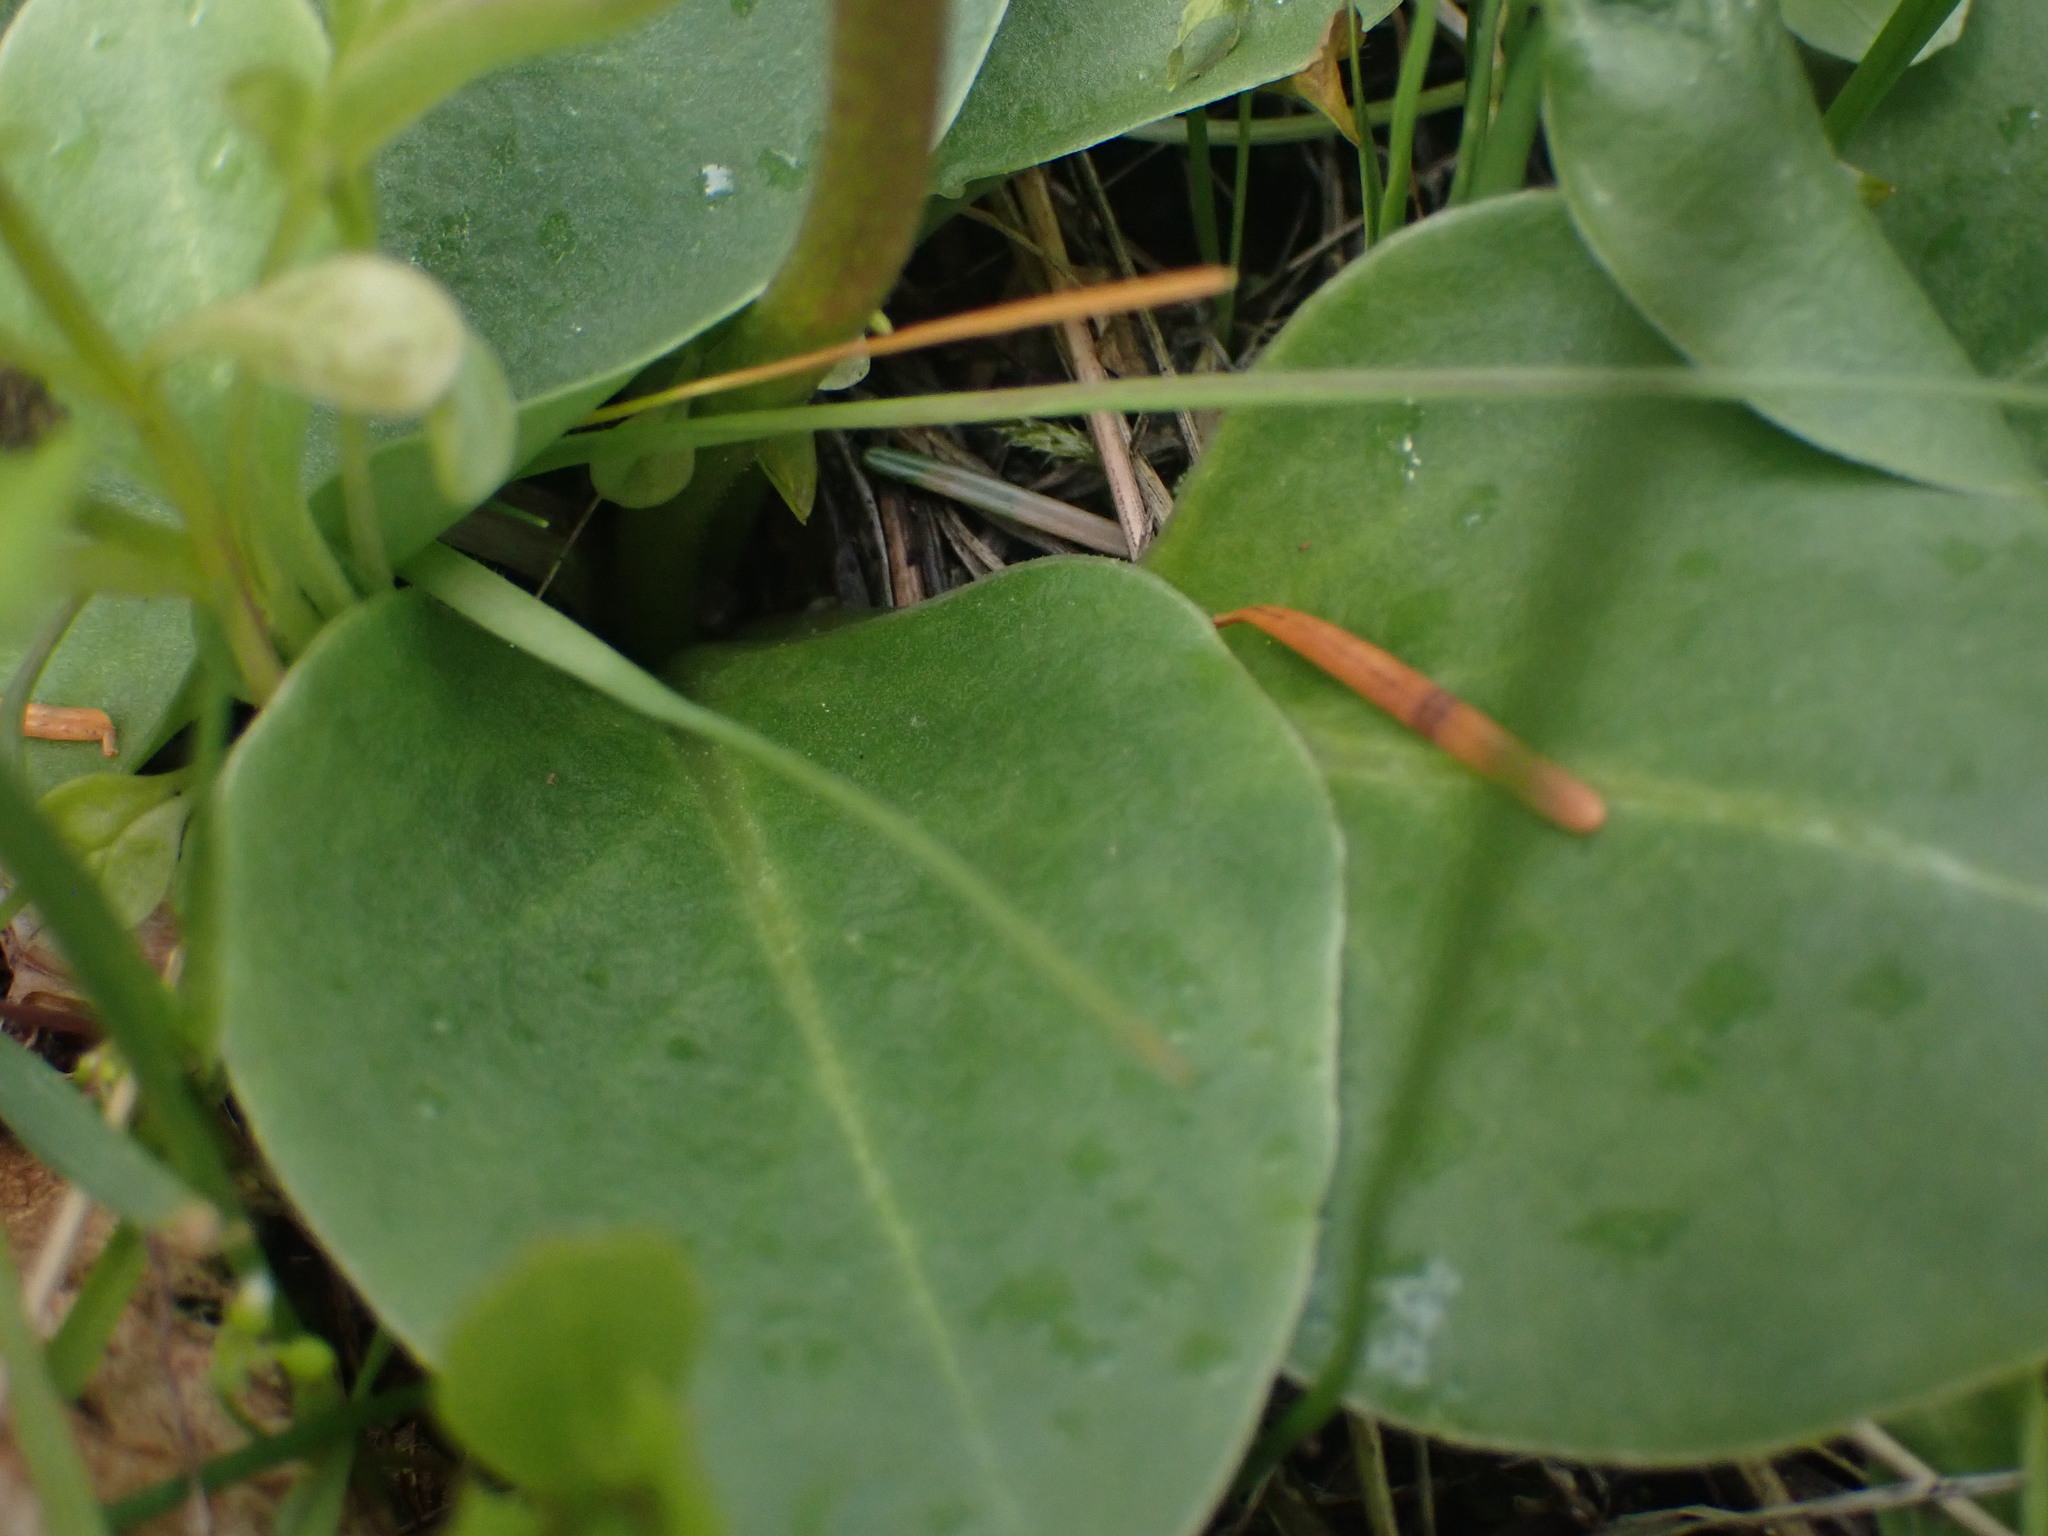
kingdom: Plantae
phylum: Tracheophyta
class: Magnoliopsida
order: Ericales
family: Primulaceae
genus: Dodecatheon
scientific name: Dodecatheon hendersonii
